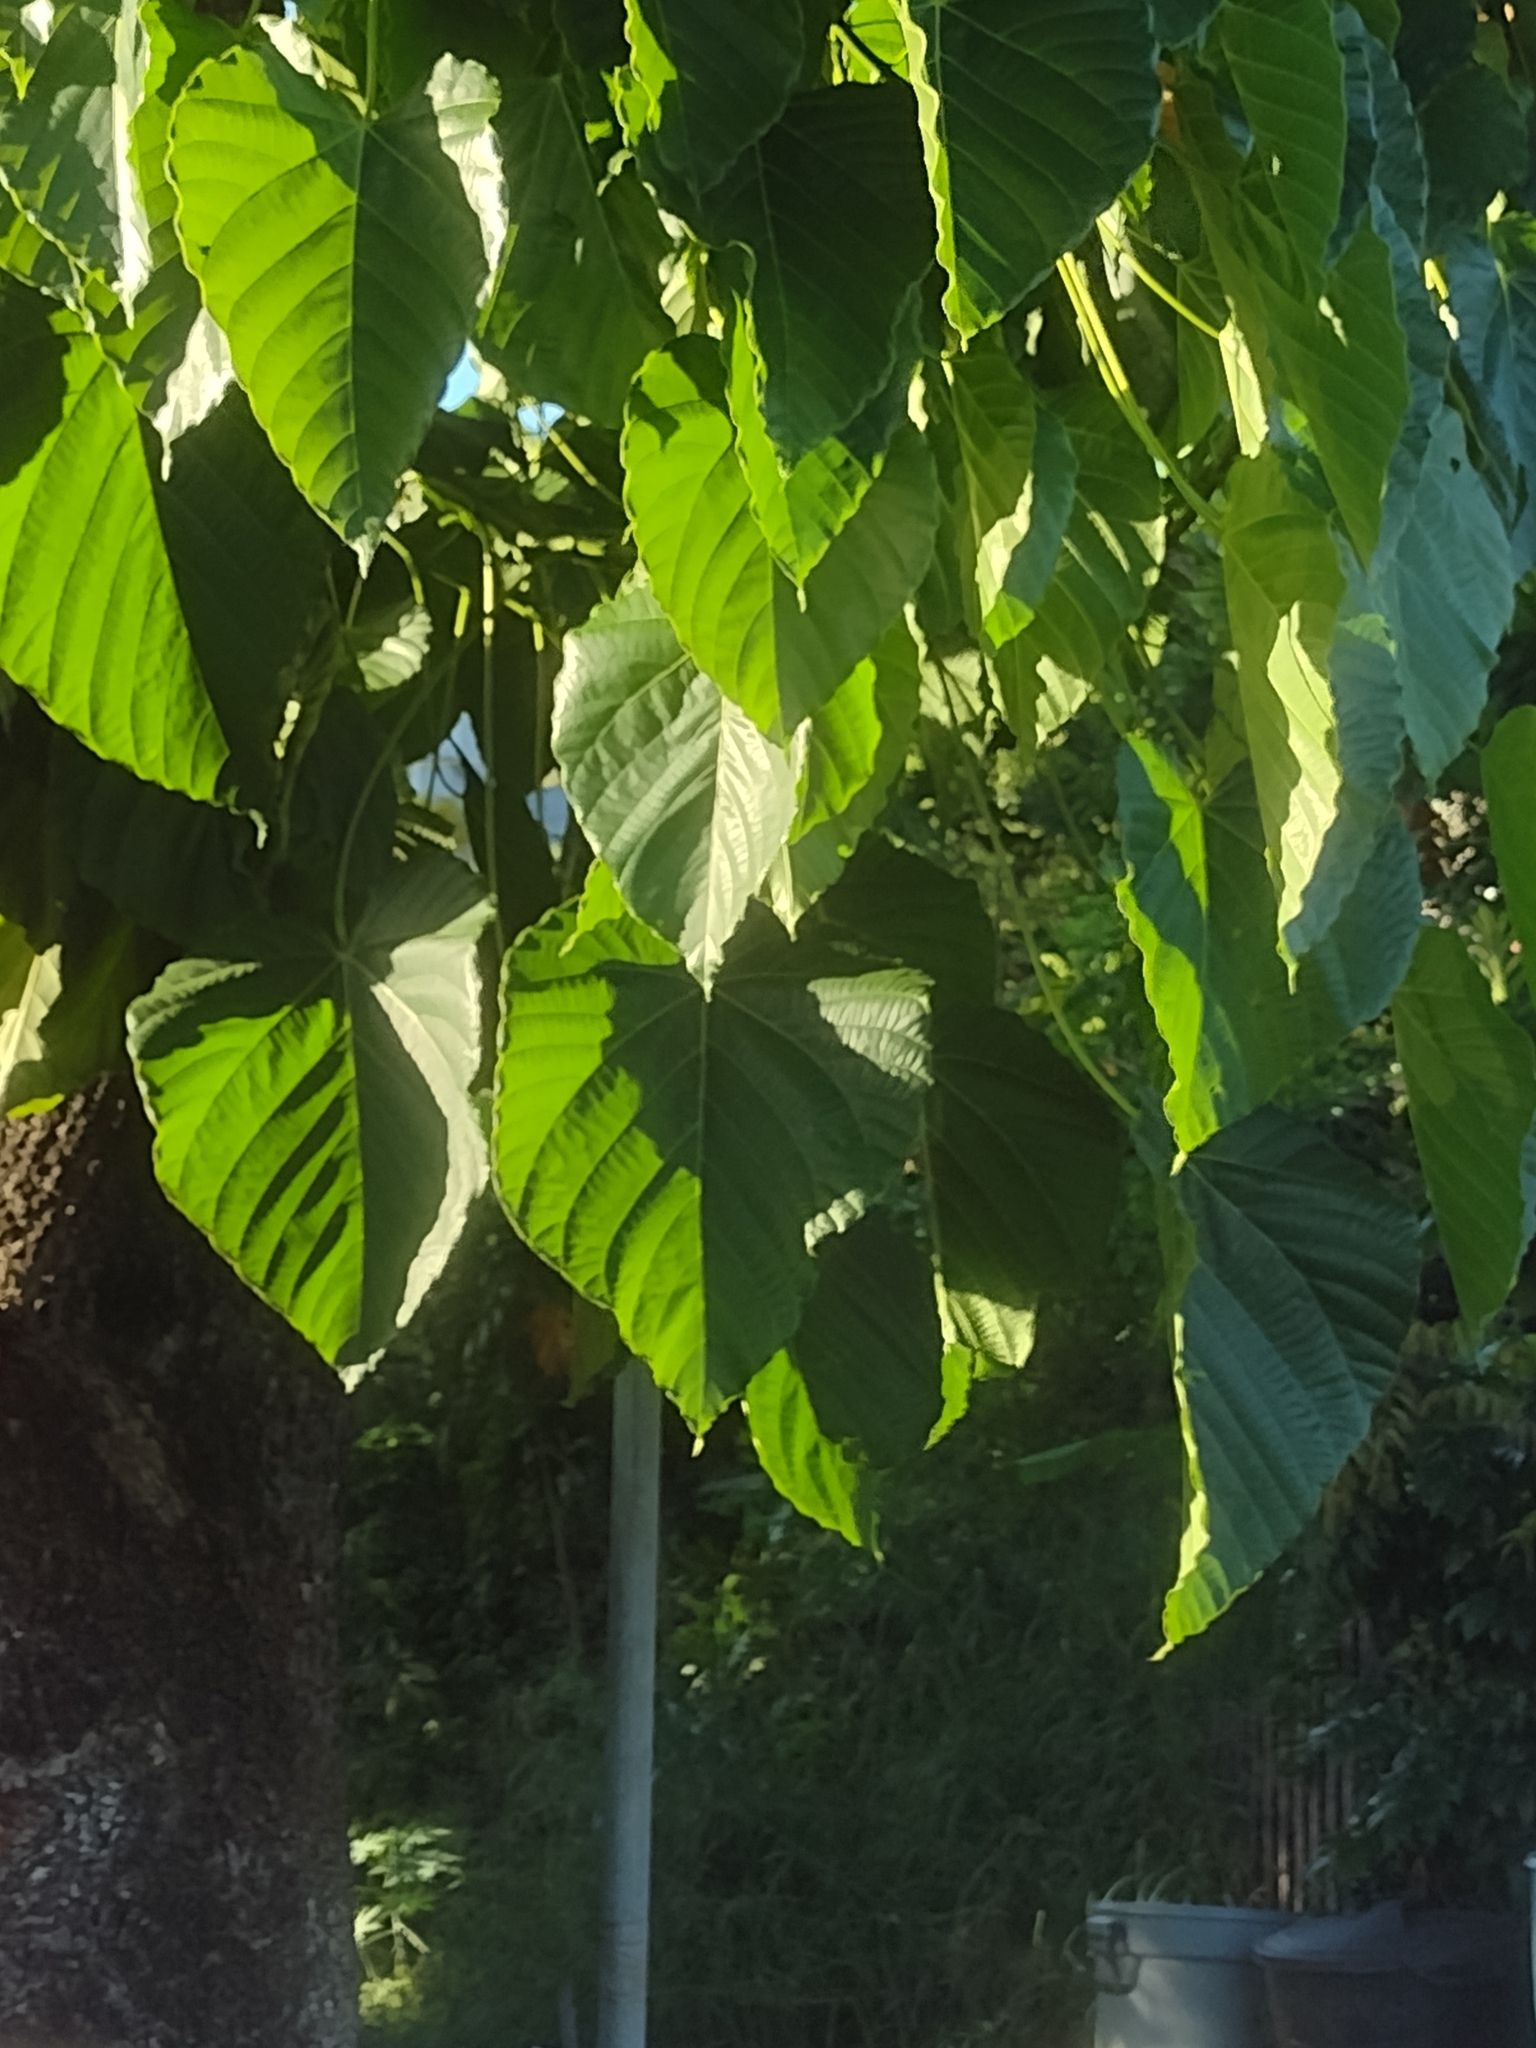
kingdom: Plantae
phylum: Tracheophyta
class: Magnoliopsida
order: Malpighiales
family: Euphorbiaceae
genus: Reutealis
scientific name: Reutealis trisperma
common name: Banucalag-nut
